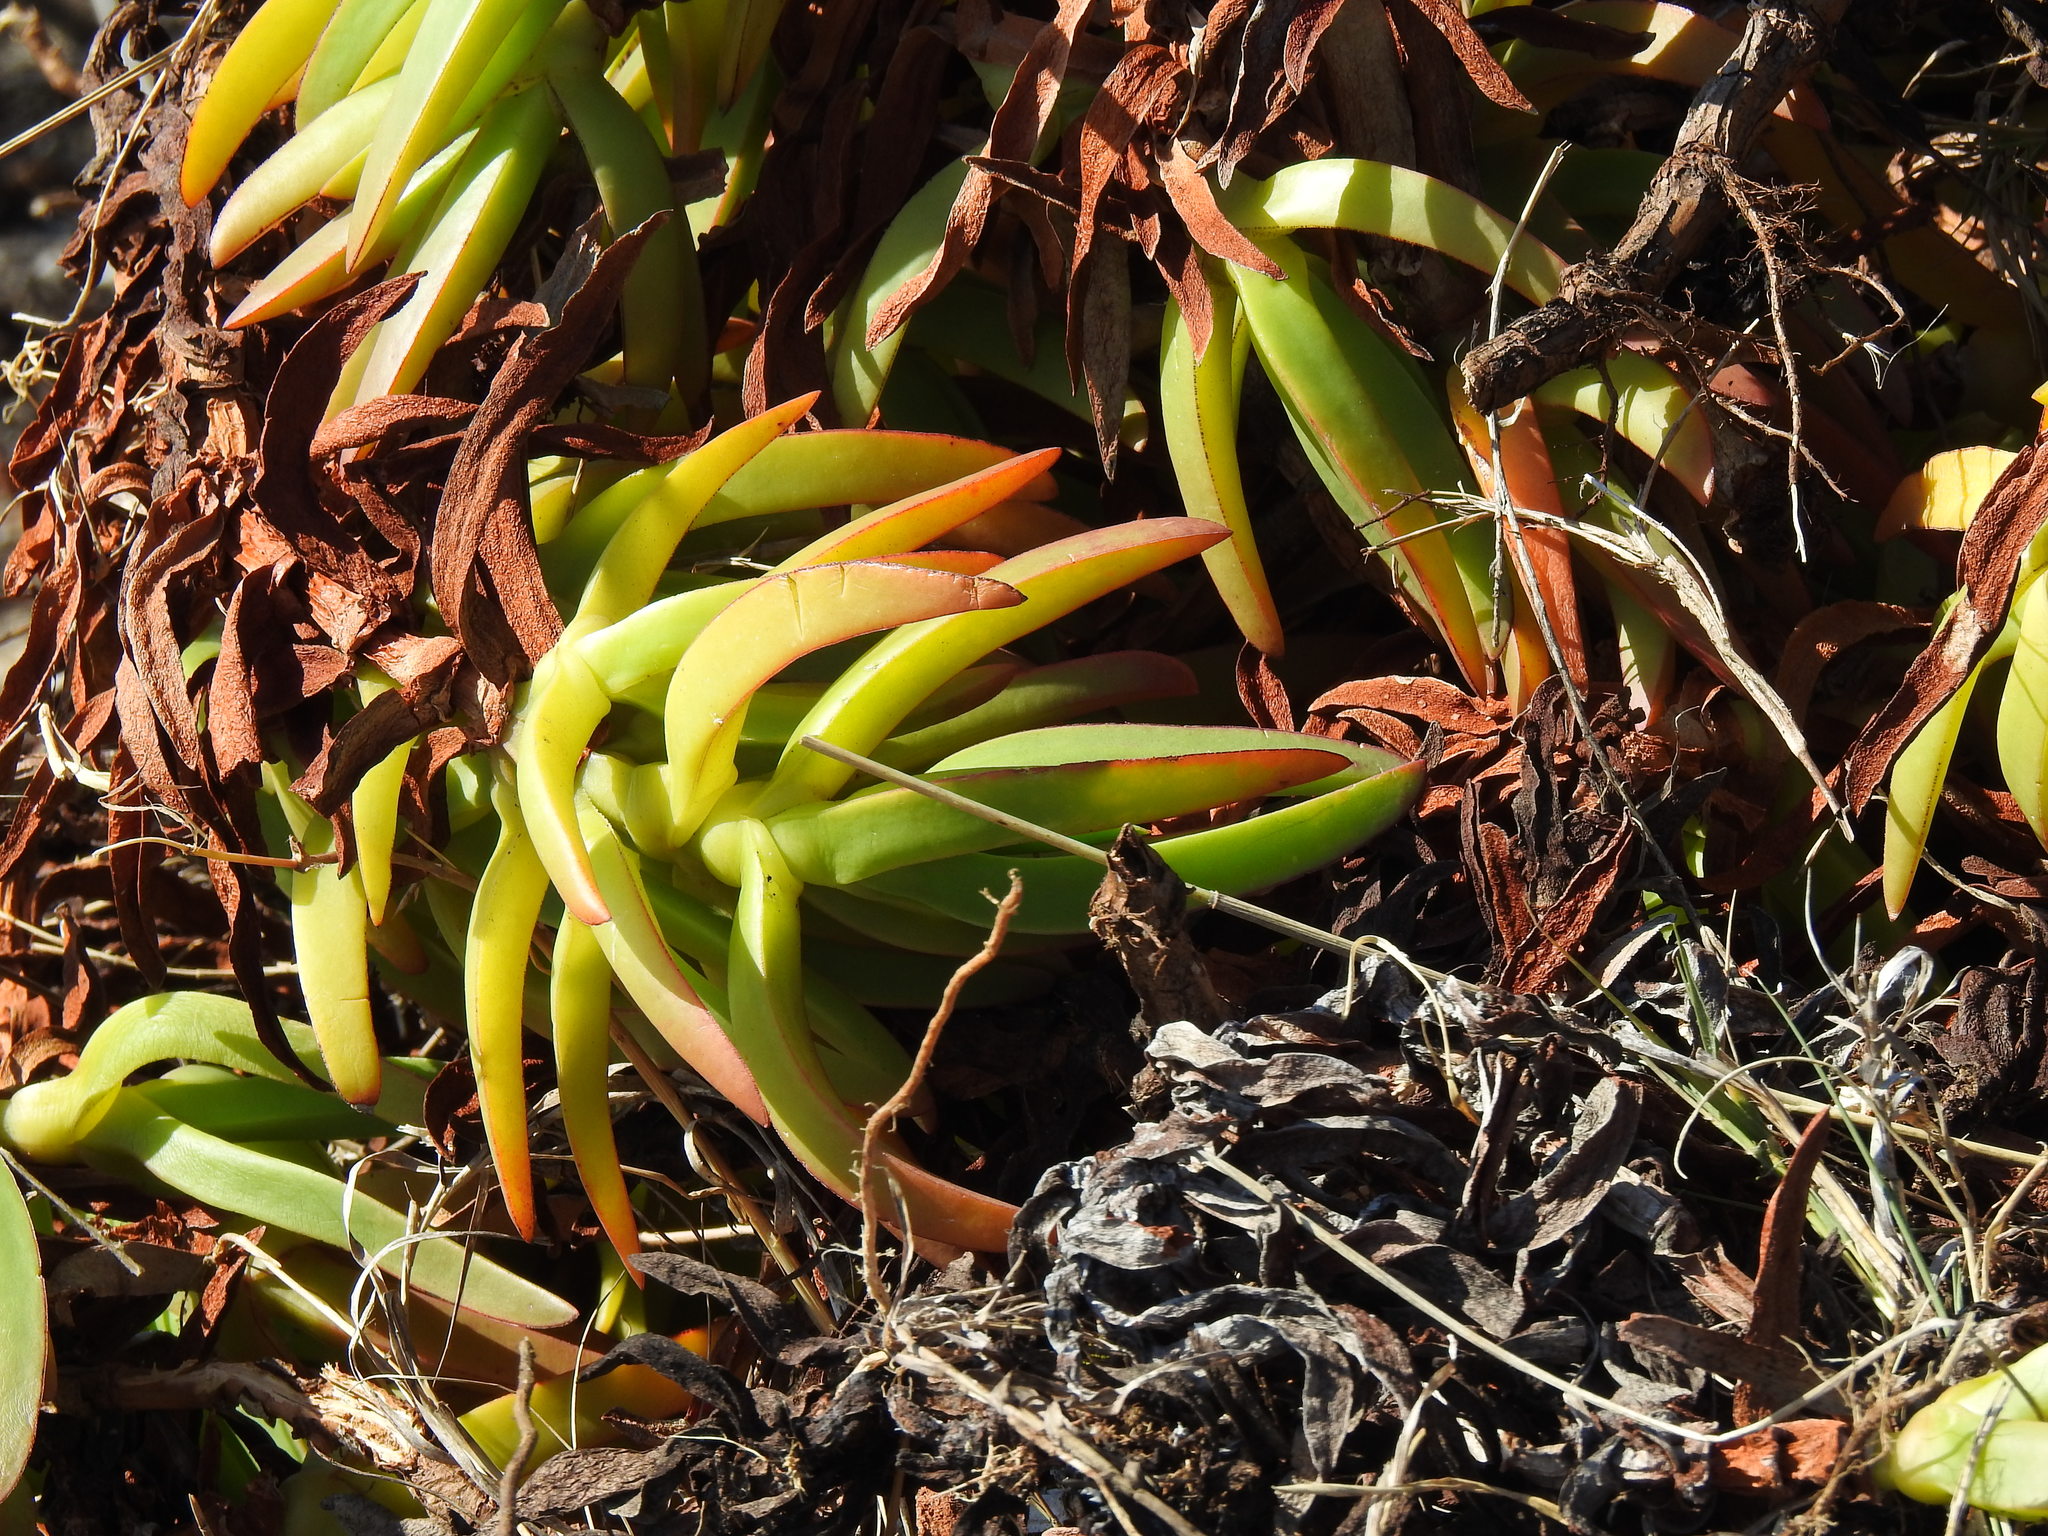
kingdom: Plantae
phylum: Tracheophyta
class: Magnoliopsida
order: Caryophyllales
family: Aizoaceae
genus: Carpobrotus
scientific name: Carpobrotus edulis
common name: Hottentot-fig
